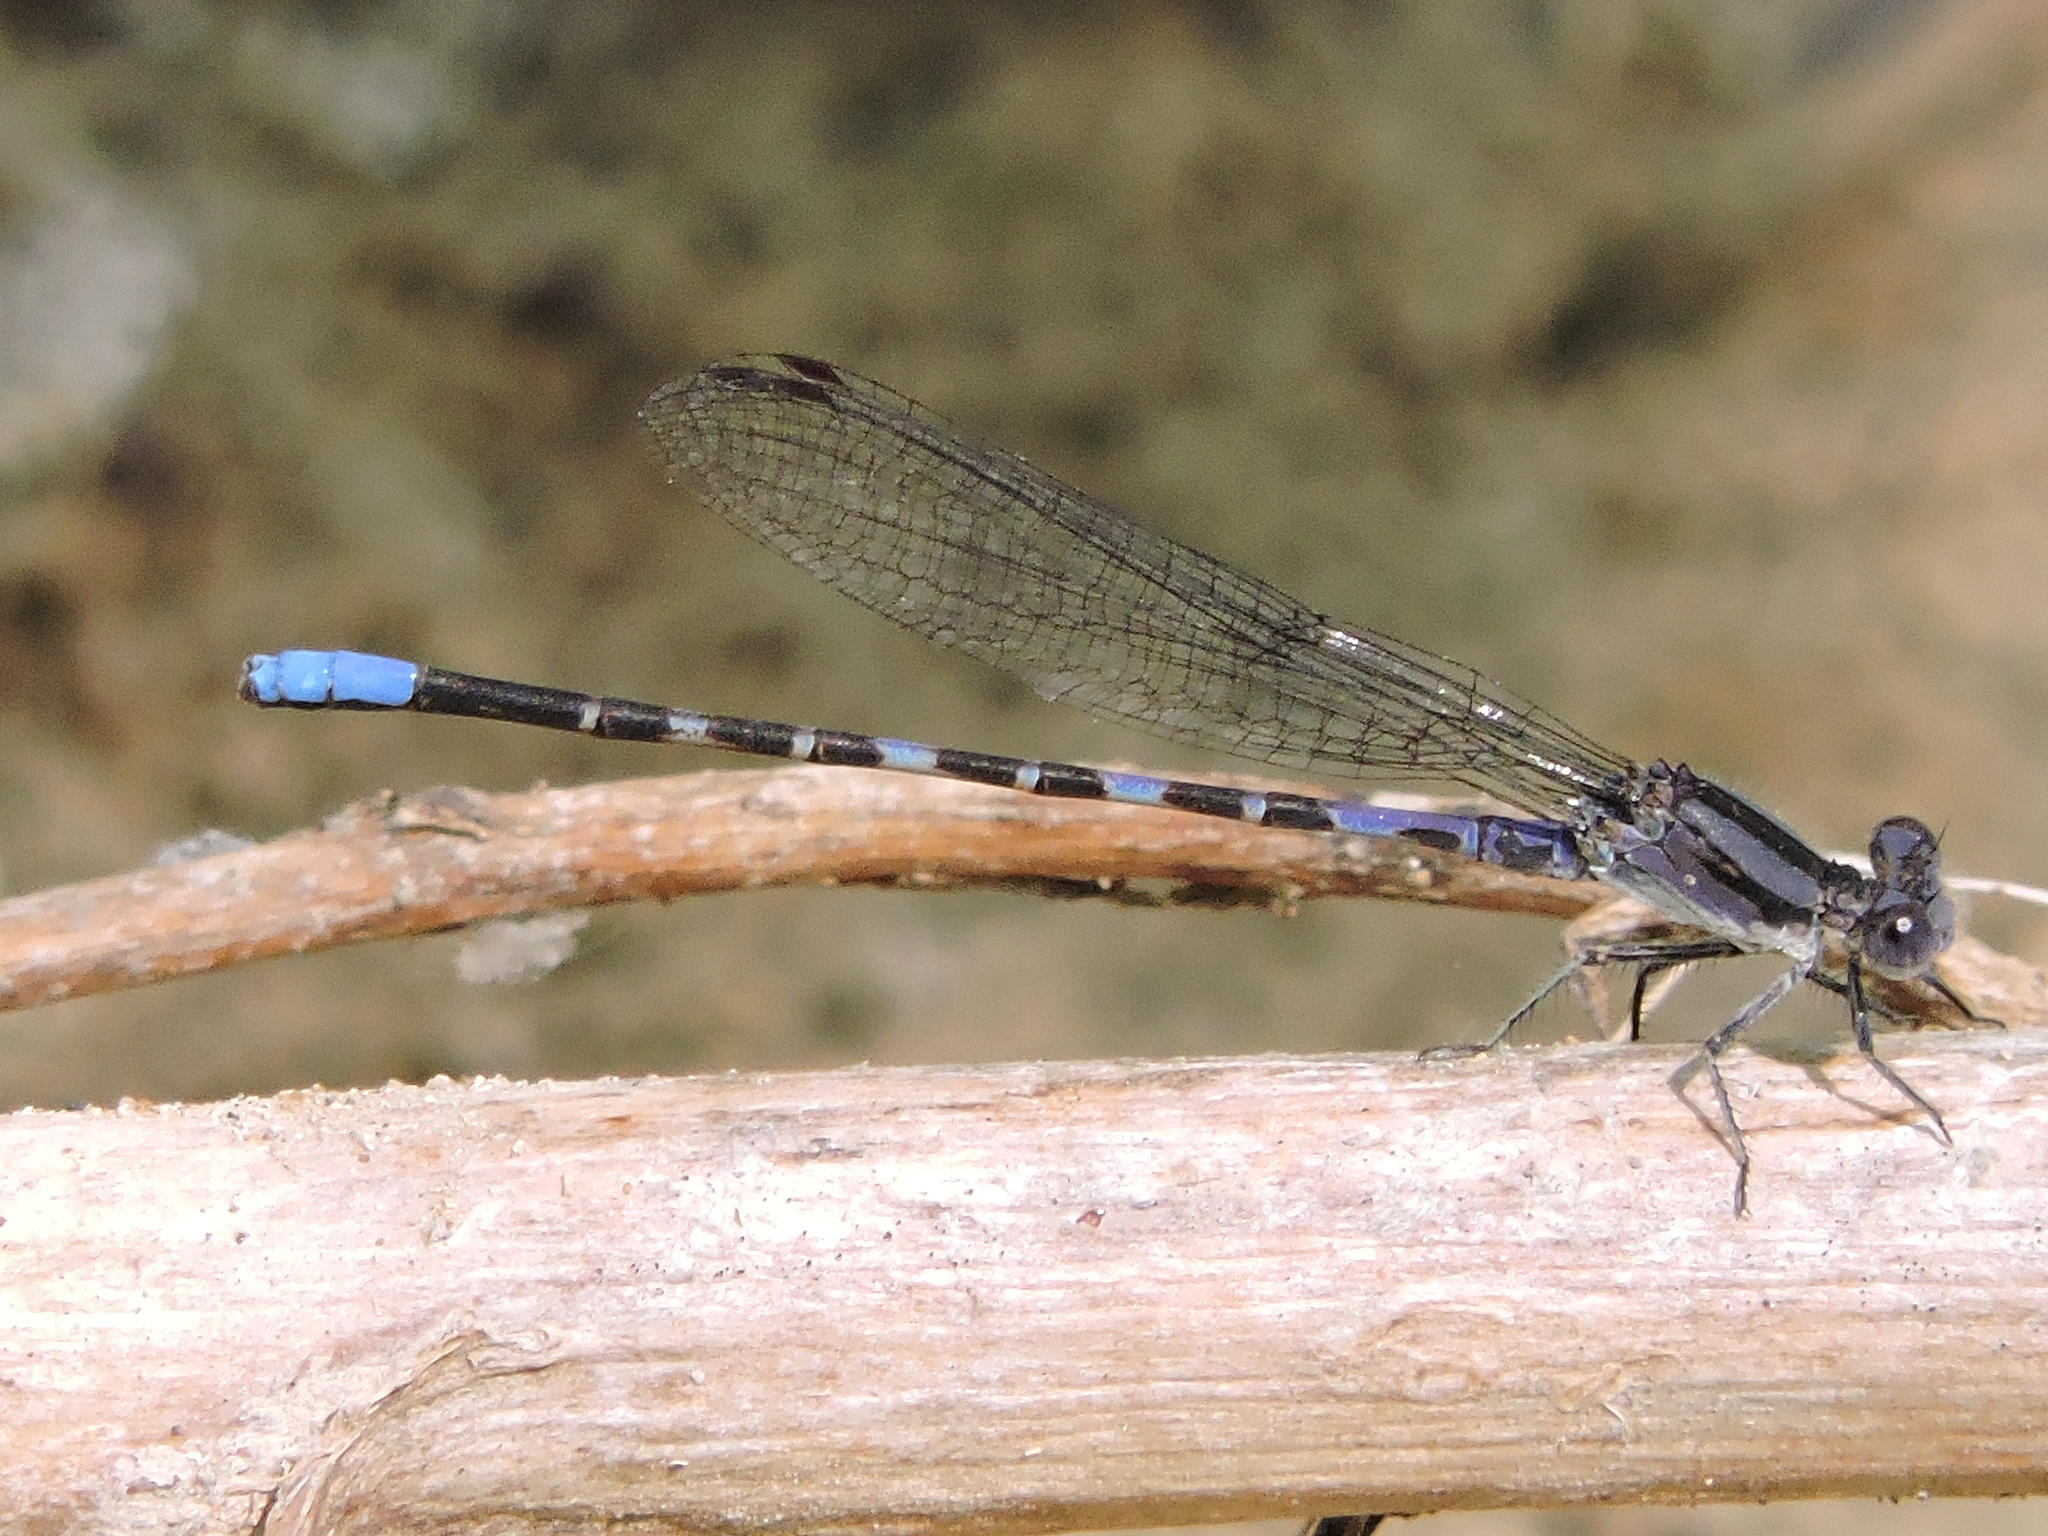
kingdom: Animalia
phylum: Arthropoda
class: Insecta
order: Odonata
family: Coenagrionidae
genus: Argia
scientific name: Argia immunda
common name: Kiowa dancer
